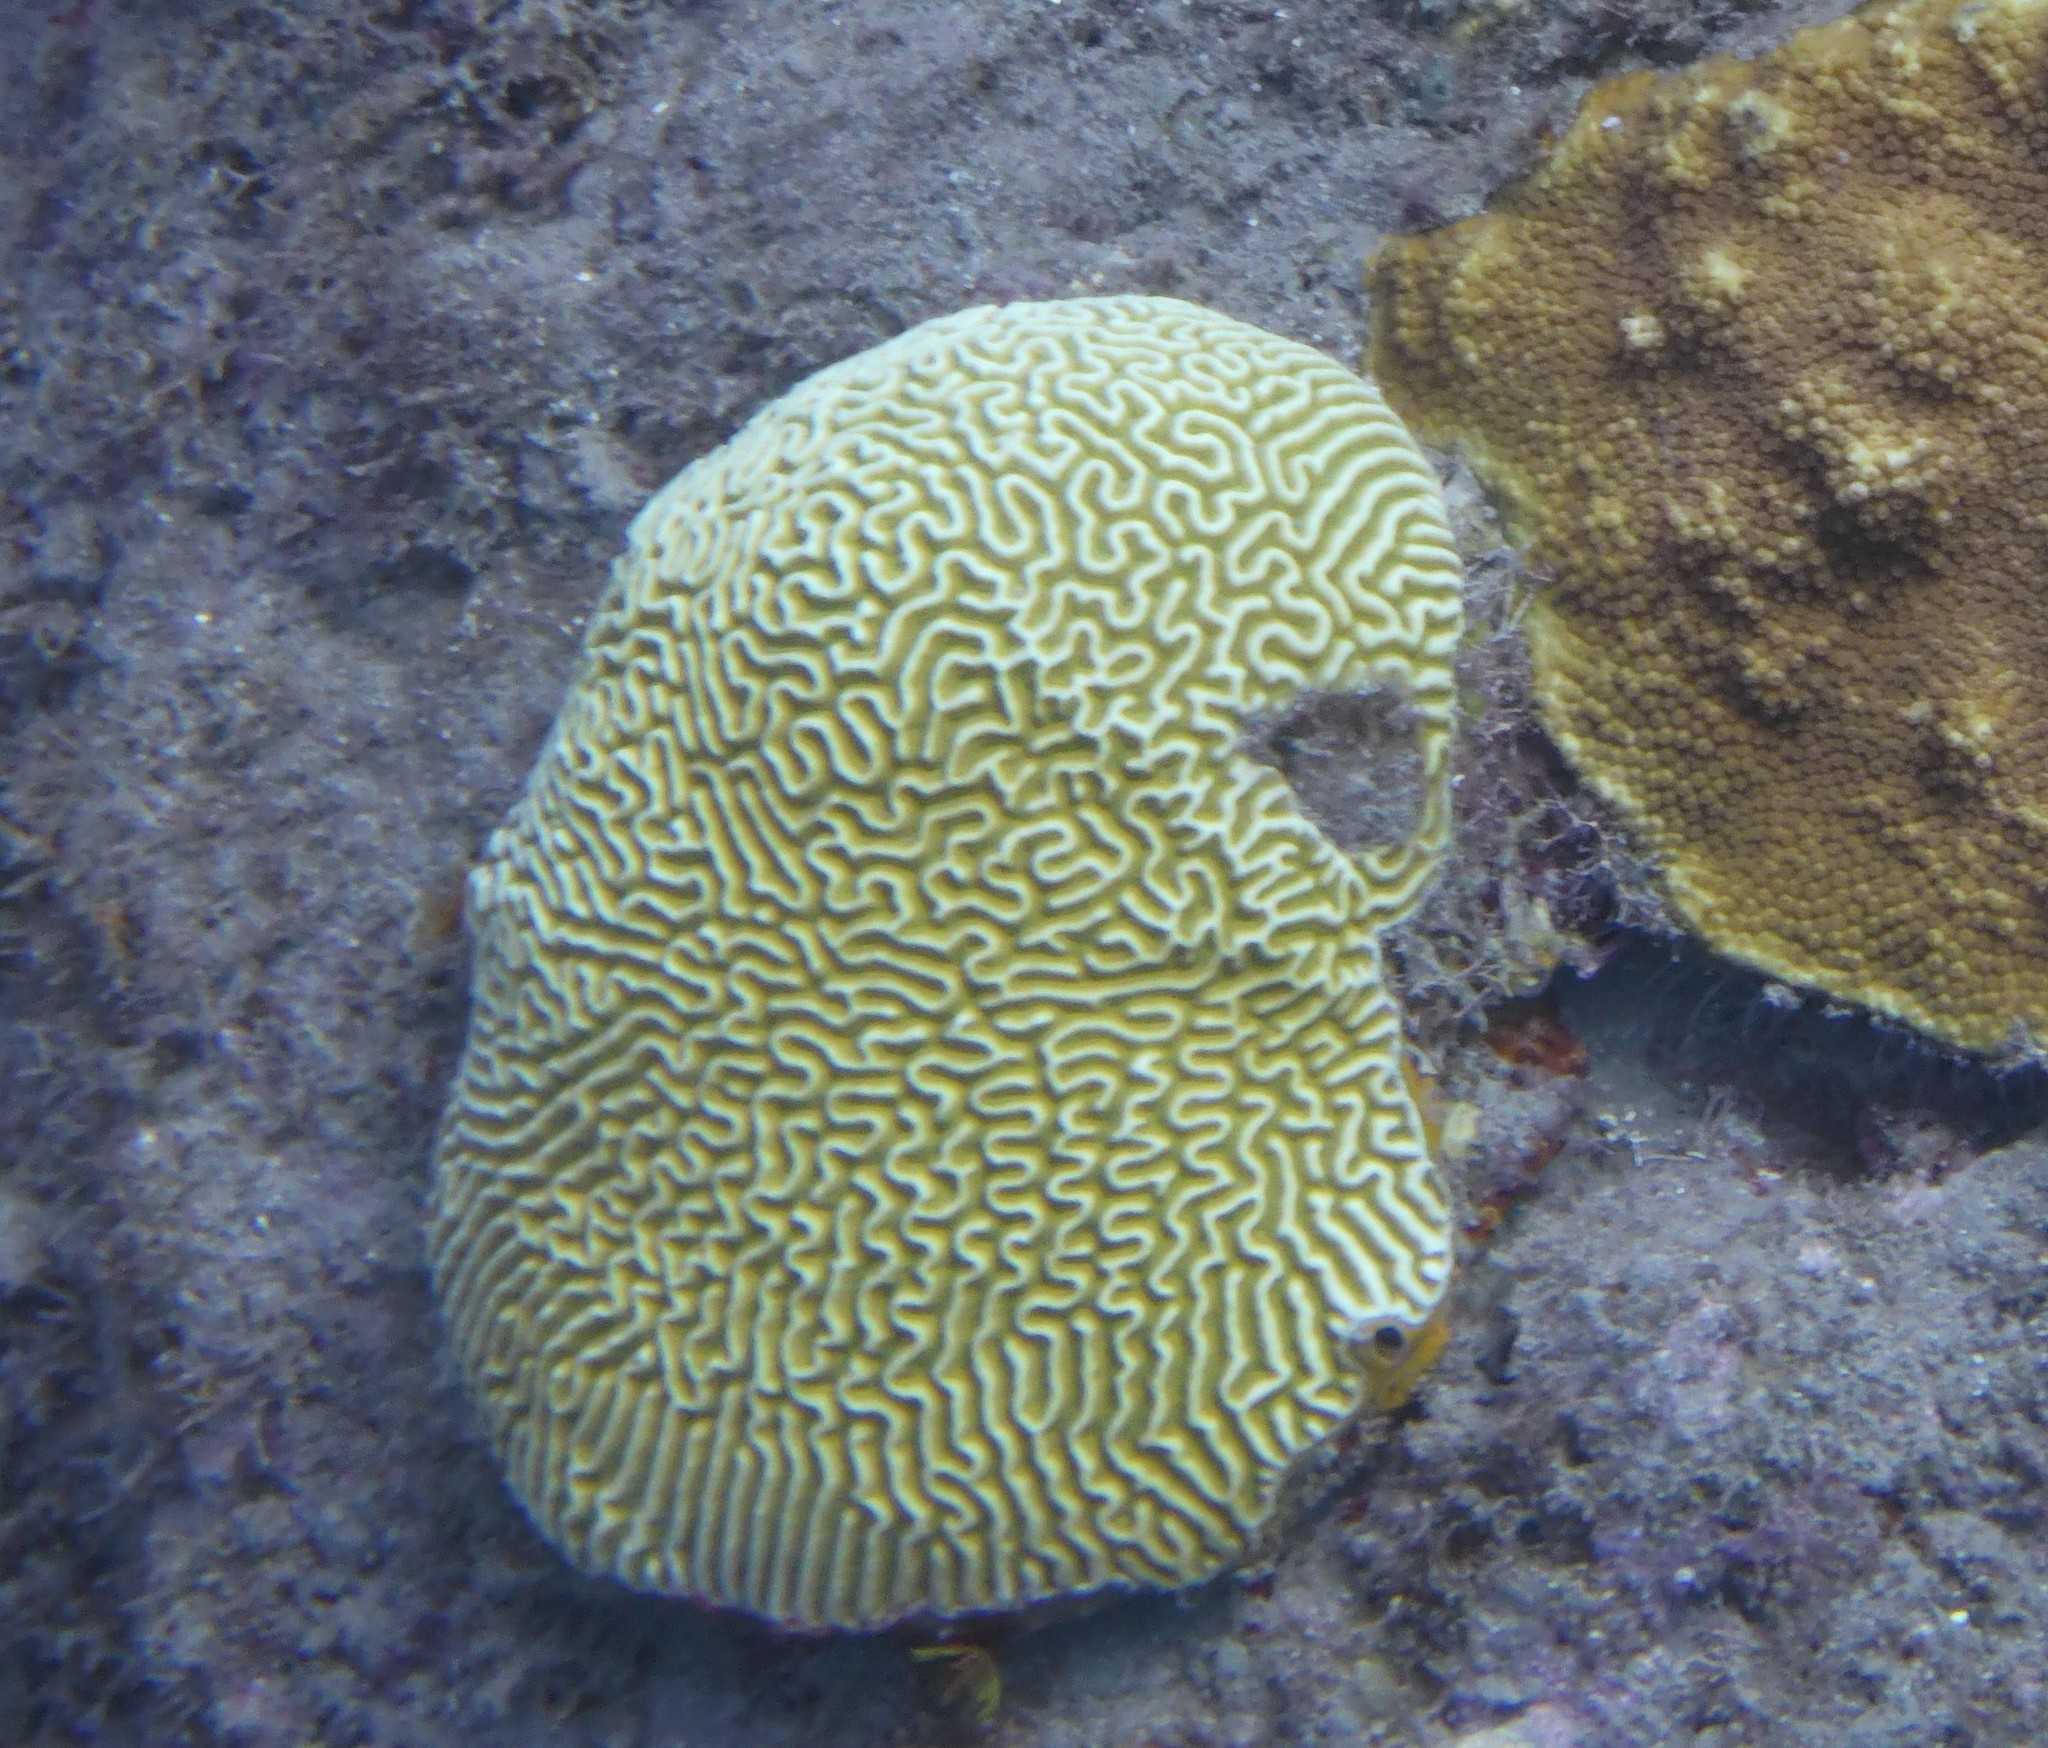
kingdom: Animalia
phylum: Cnidaria
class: Anthozoa
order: Scleractinia
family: Faviidae
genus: Pseudodiploria
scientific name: Pseudodiploria strigosa
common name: Symmetrical brain coral
